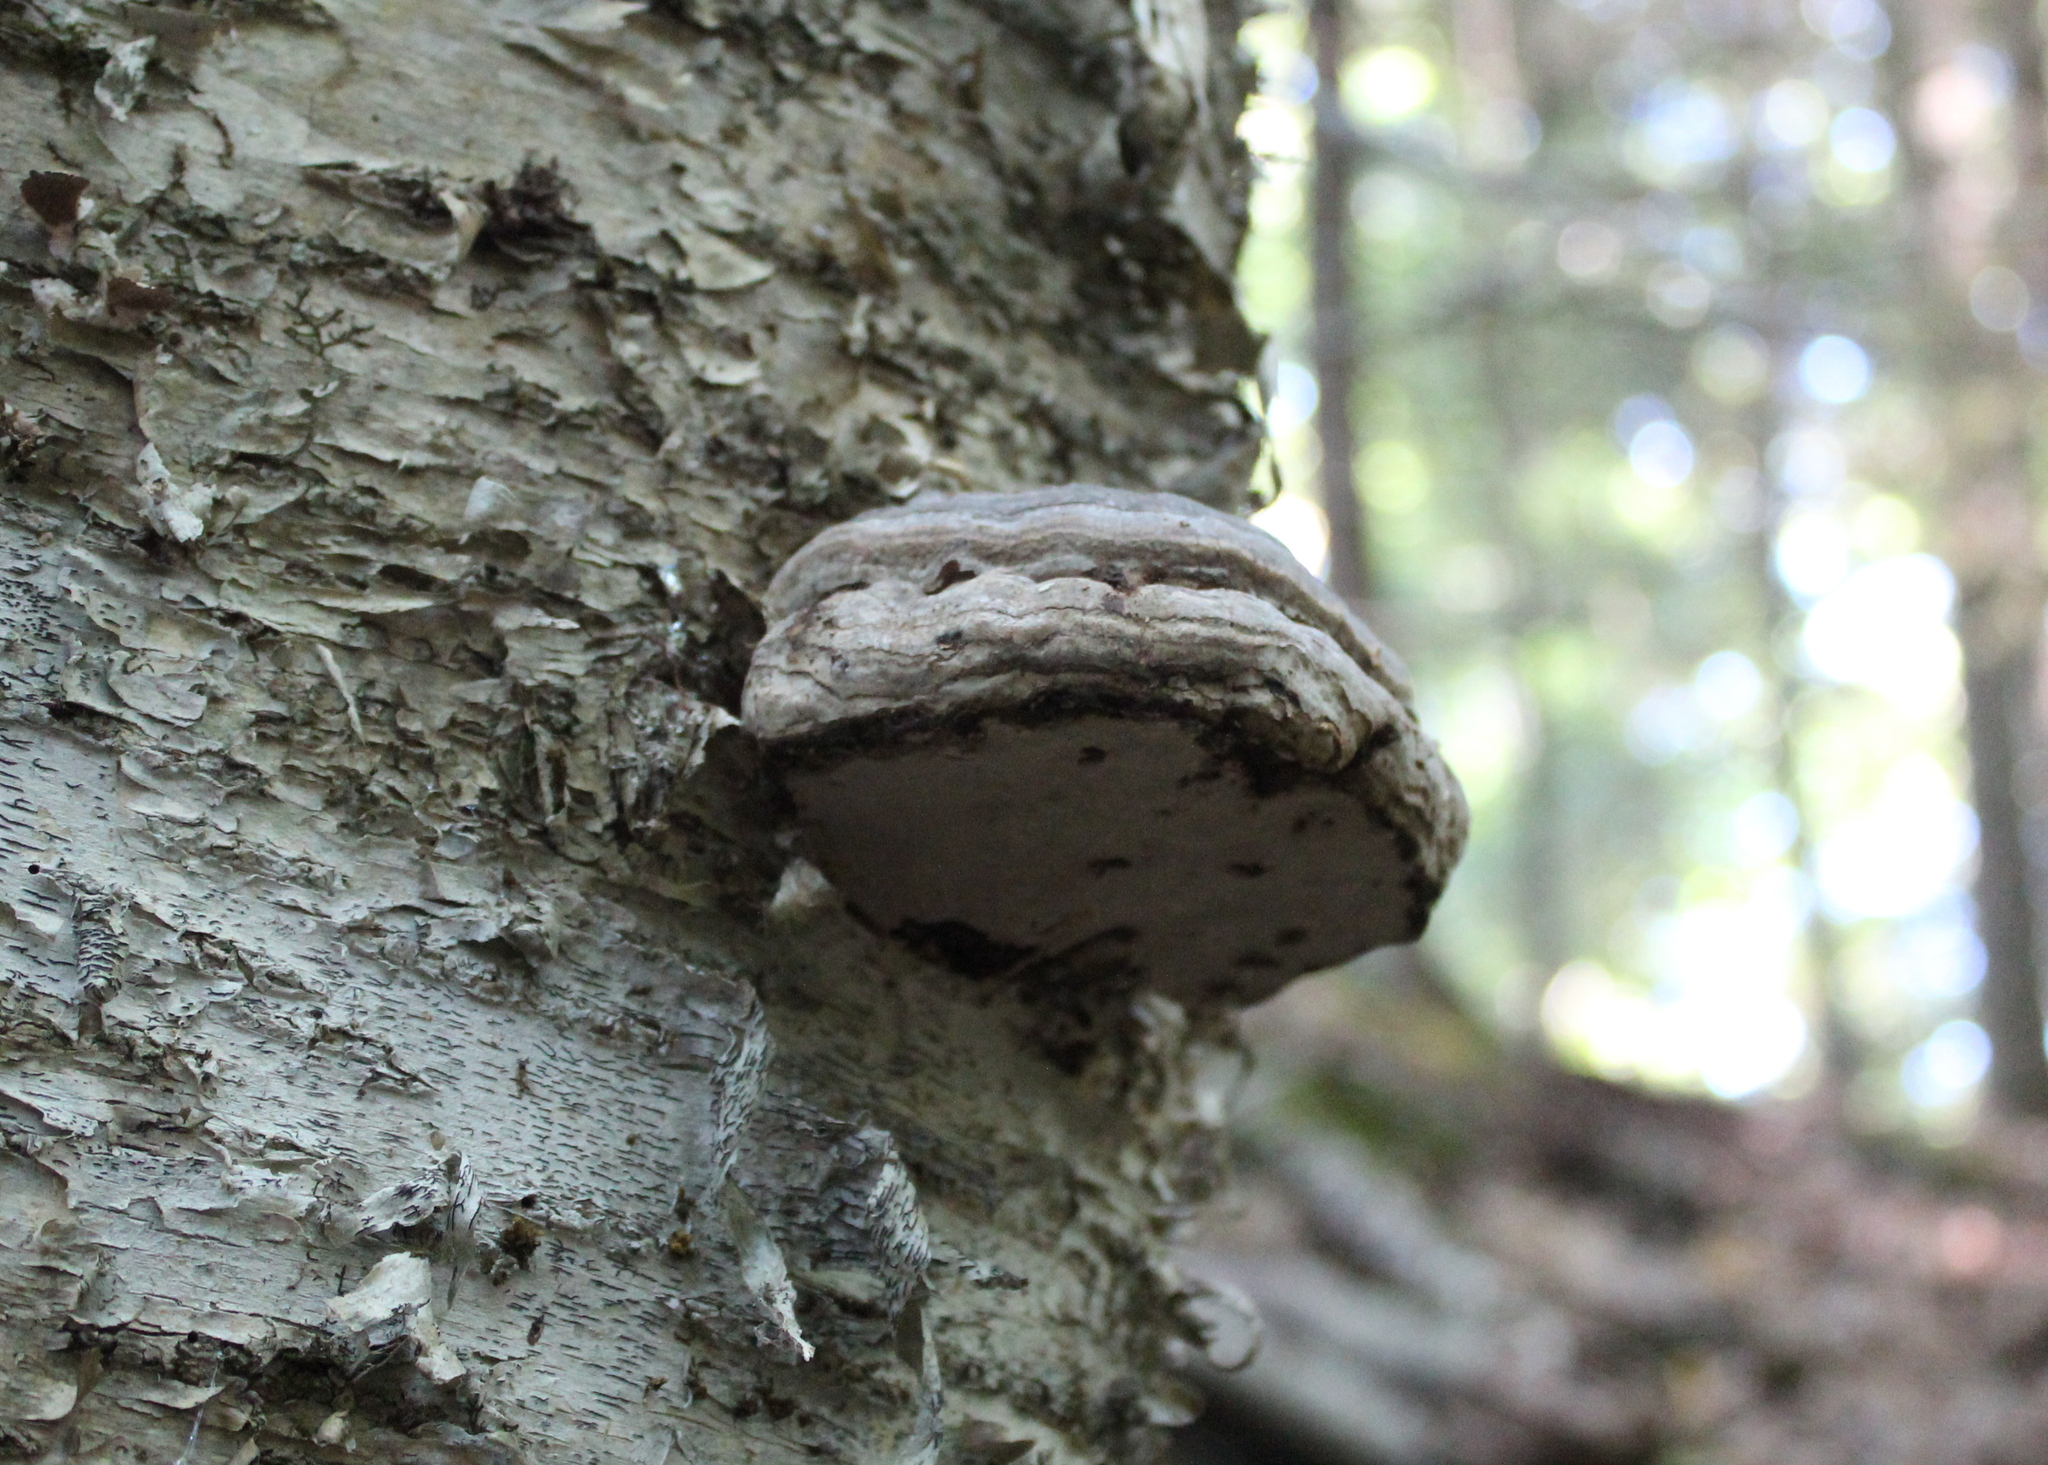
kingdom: Fungi
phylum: Basidiomycota
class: Agaricomycetes
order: Polyporales
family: Polyporaceae
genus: Fomes
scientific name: Fomes fomentarius
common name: Hoof fungus
